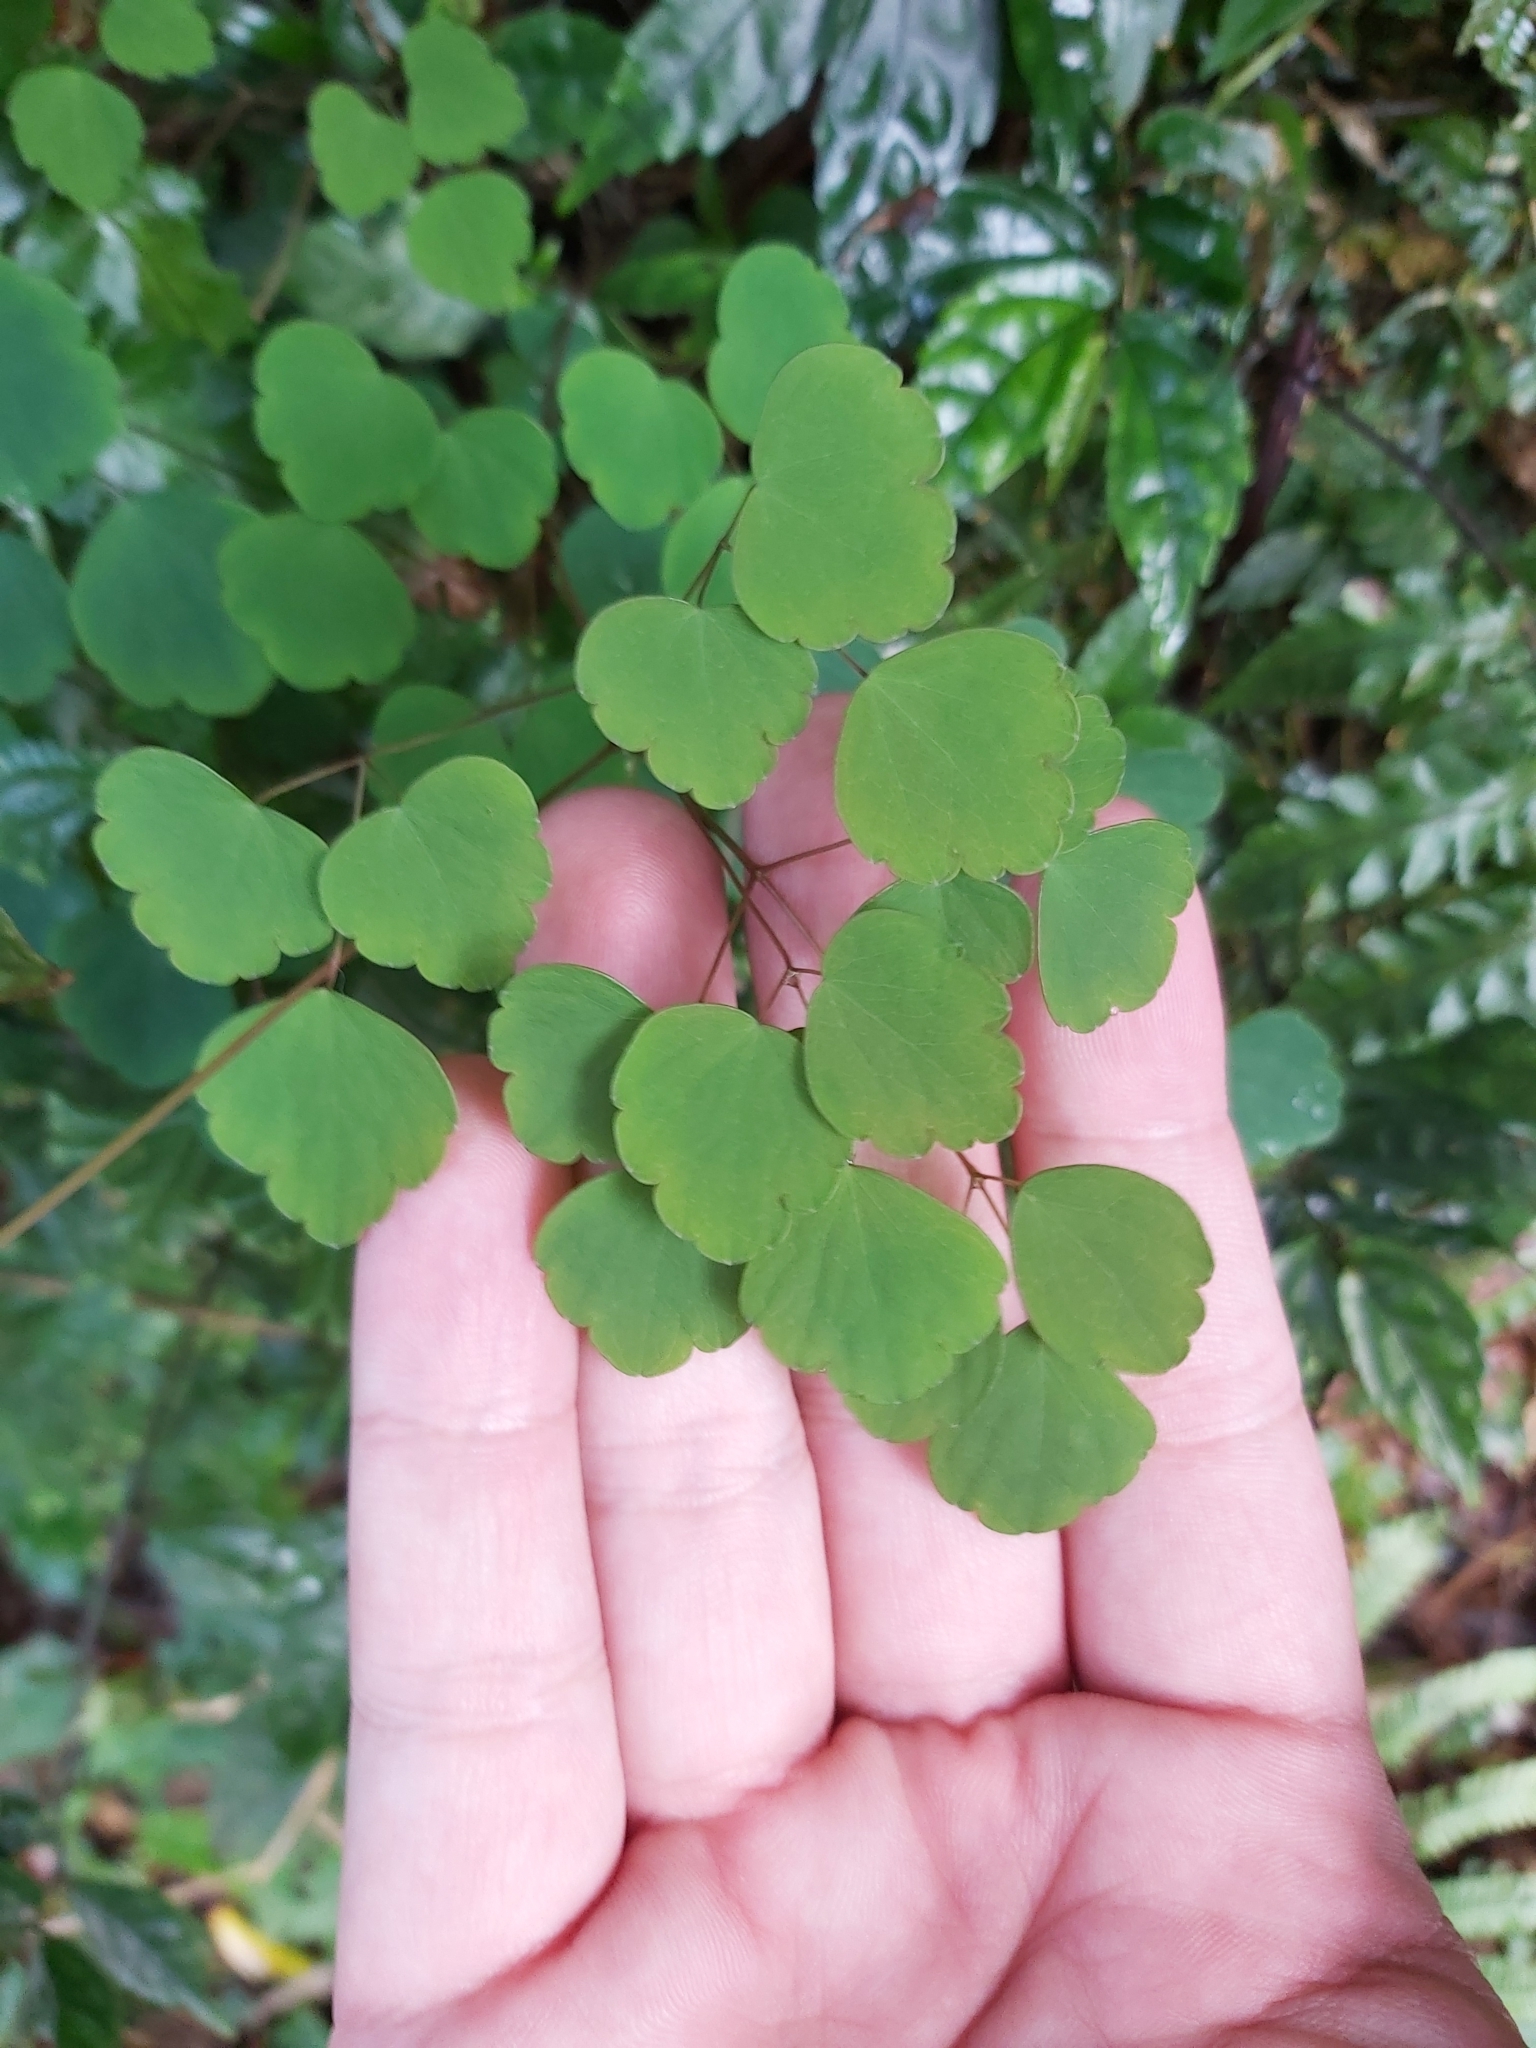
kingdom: Plantae
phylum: Tracheophyta
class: Magnoliopsida
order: Ranunculales
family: Ranunculaceae
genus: Thalictrum
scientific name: Thalictrum urbaini
